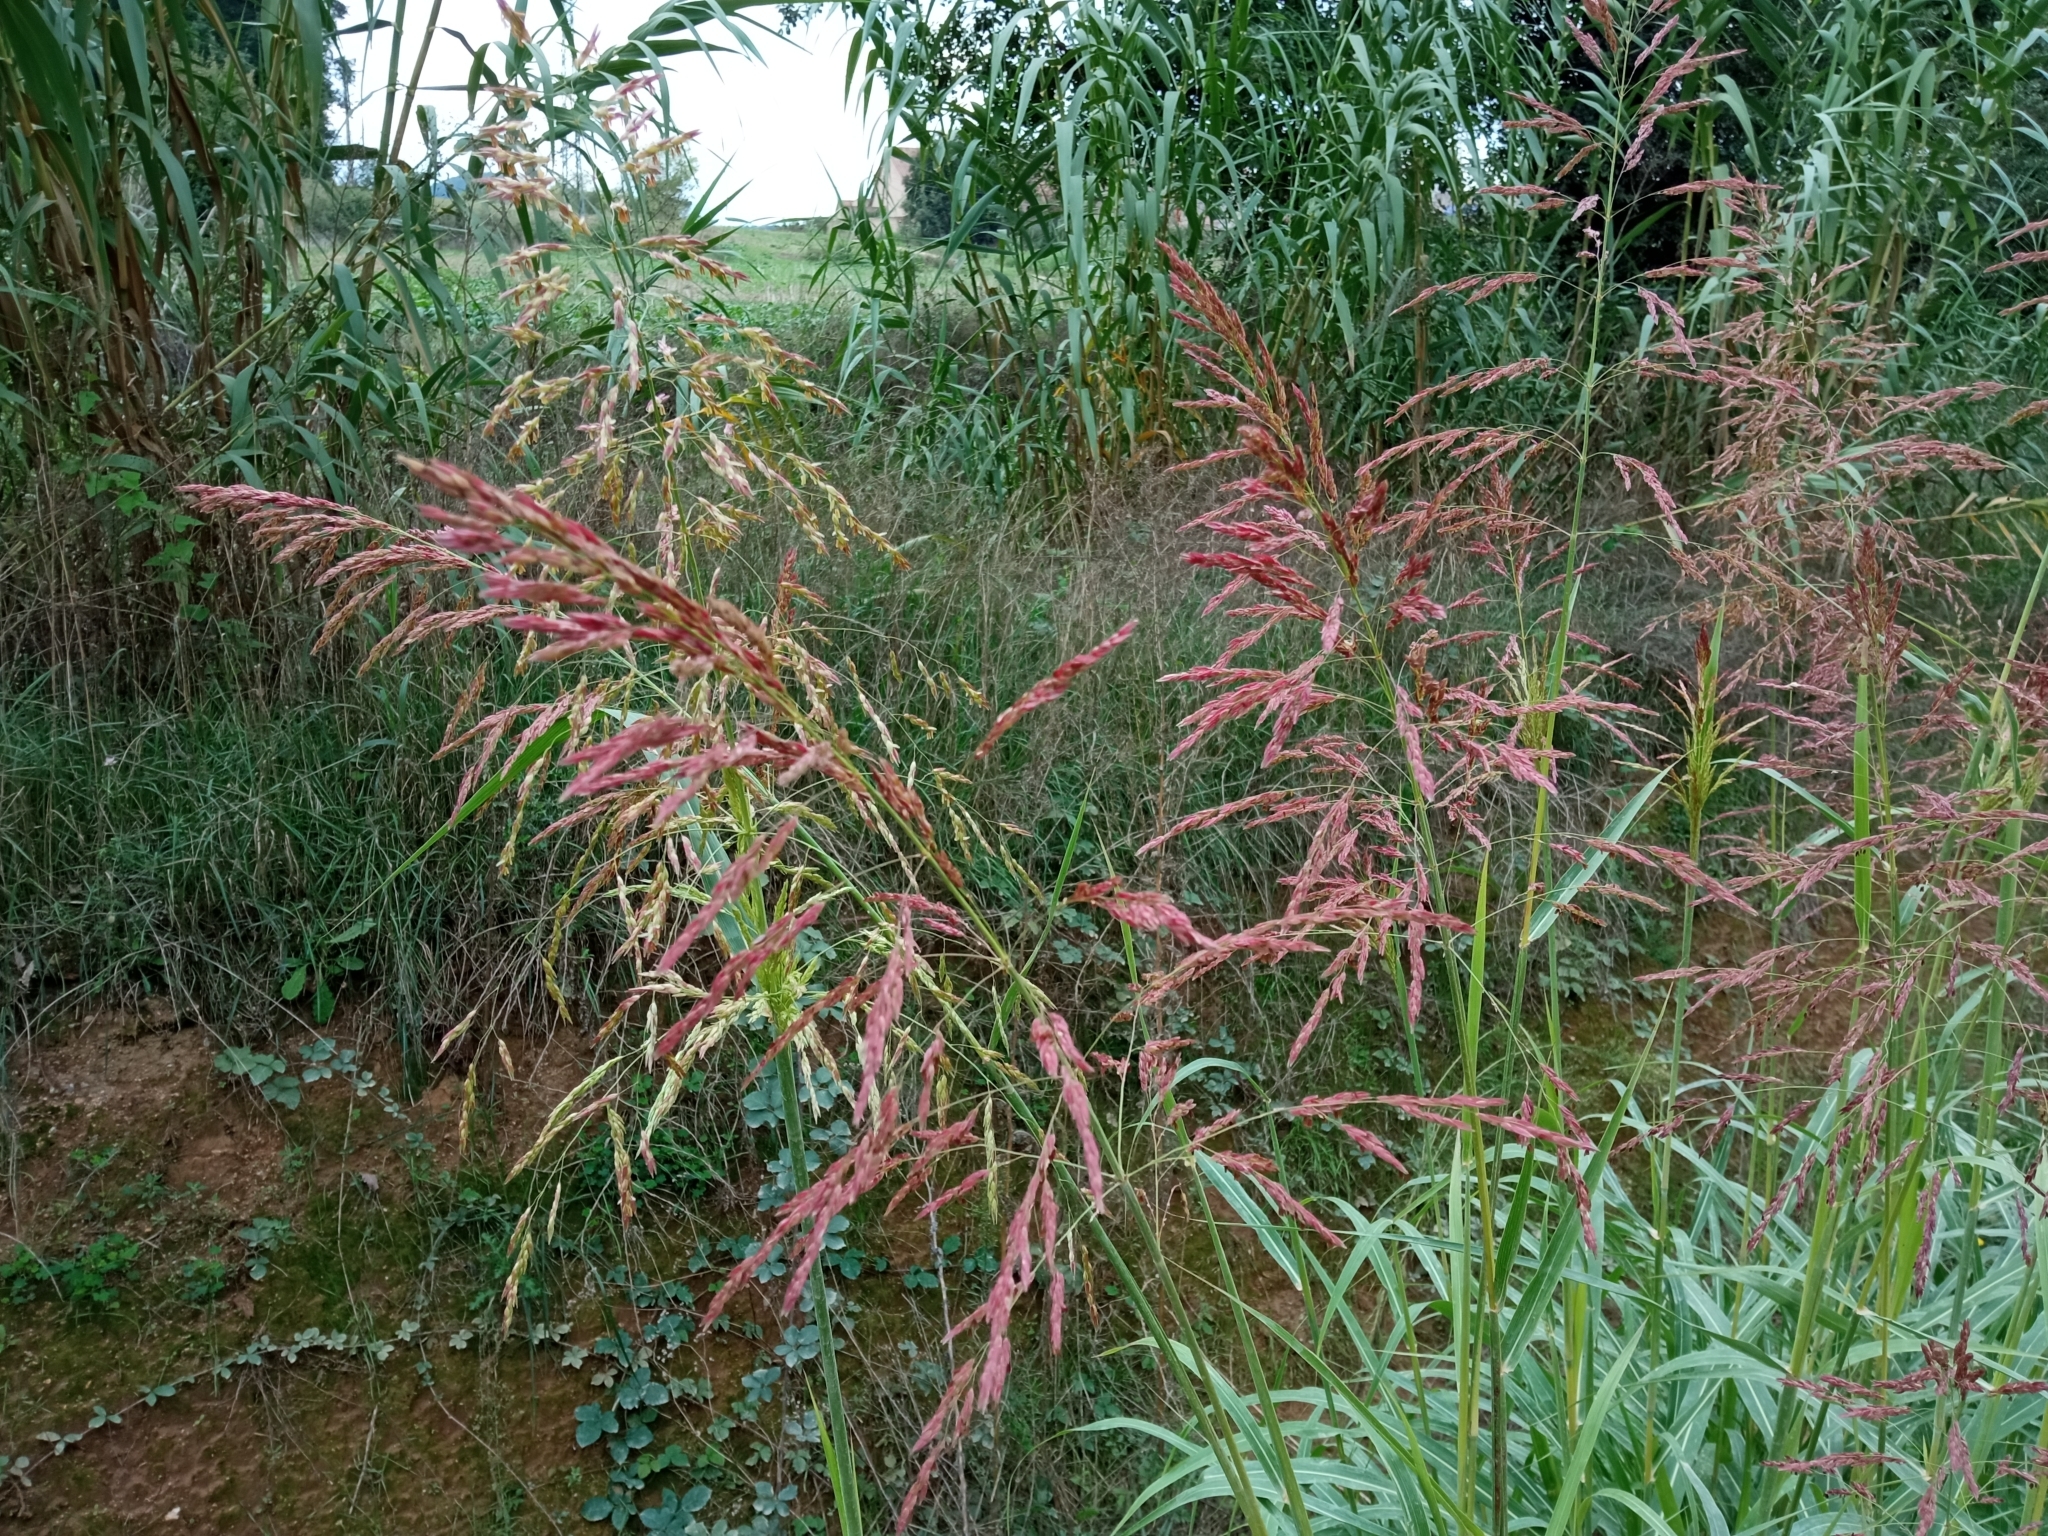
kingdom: Plantae
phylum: Tracheophyta
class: Liliopsida
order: Poales
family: Poaceae
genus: Sorghum
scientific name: Sorghum halepense
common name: Johnson-grass
